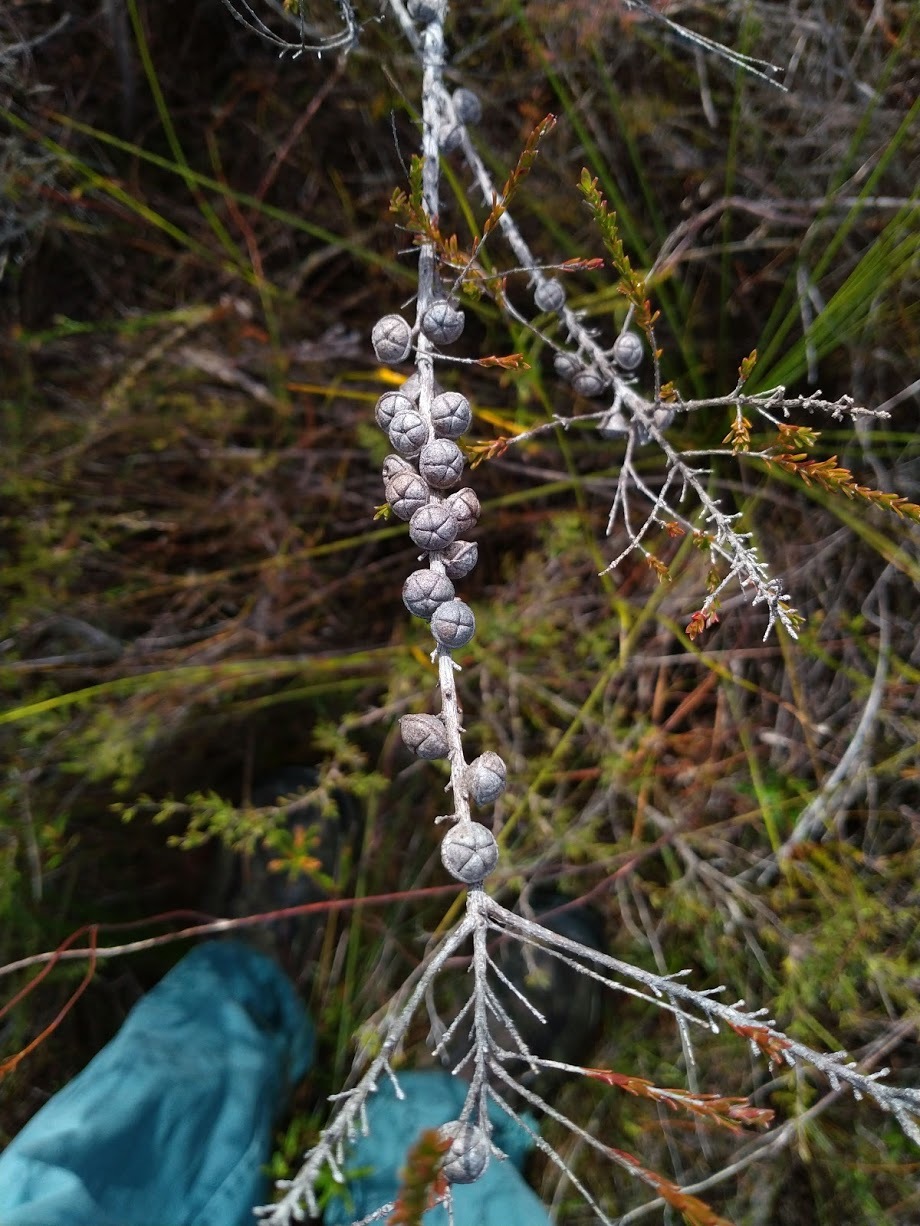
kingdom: Plantae
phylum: Tracheophyta
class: Magnoliopsida
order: Myrtales
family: Myrtaceae
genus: Leptospermum
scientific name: Leptospermum liversidgei
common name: Citron-scent teatree
